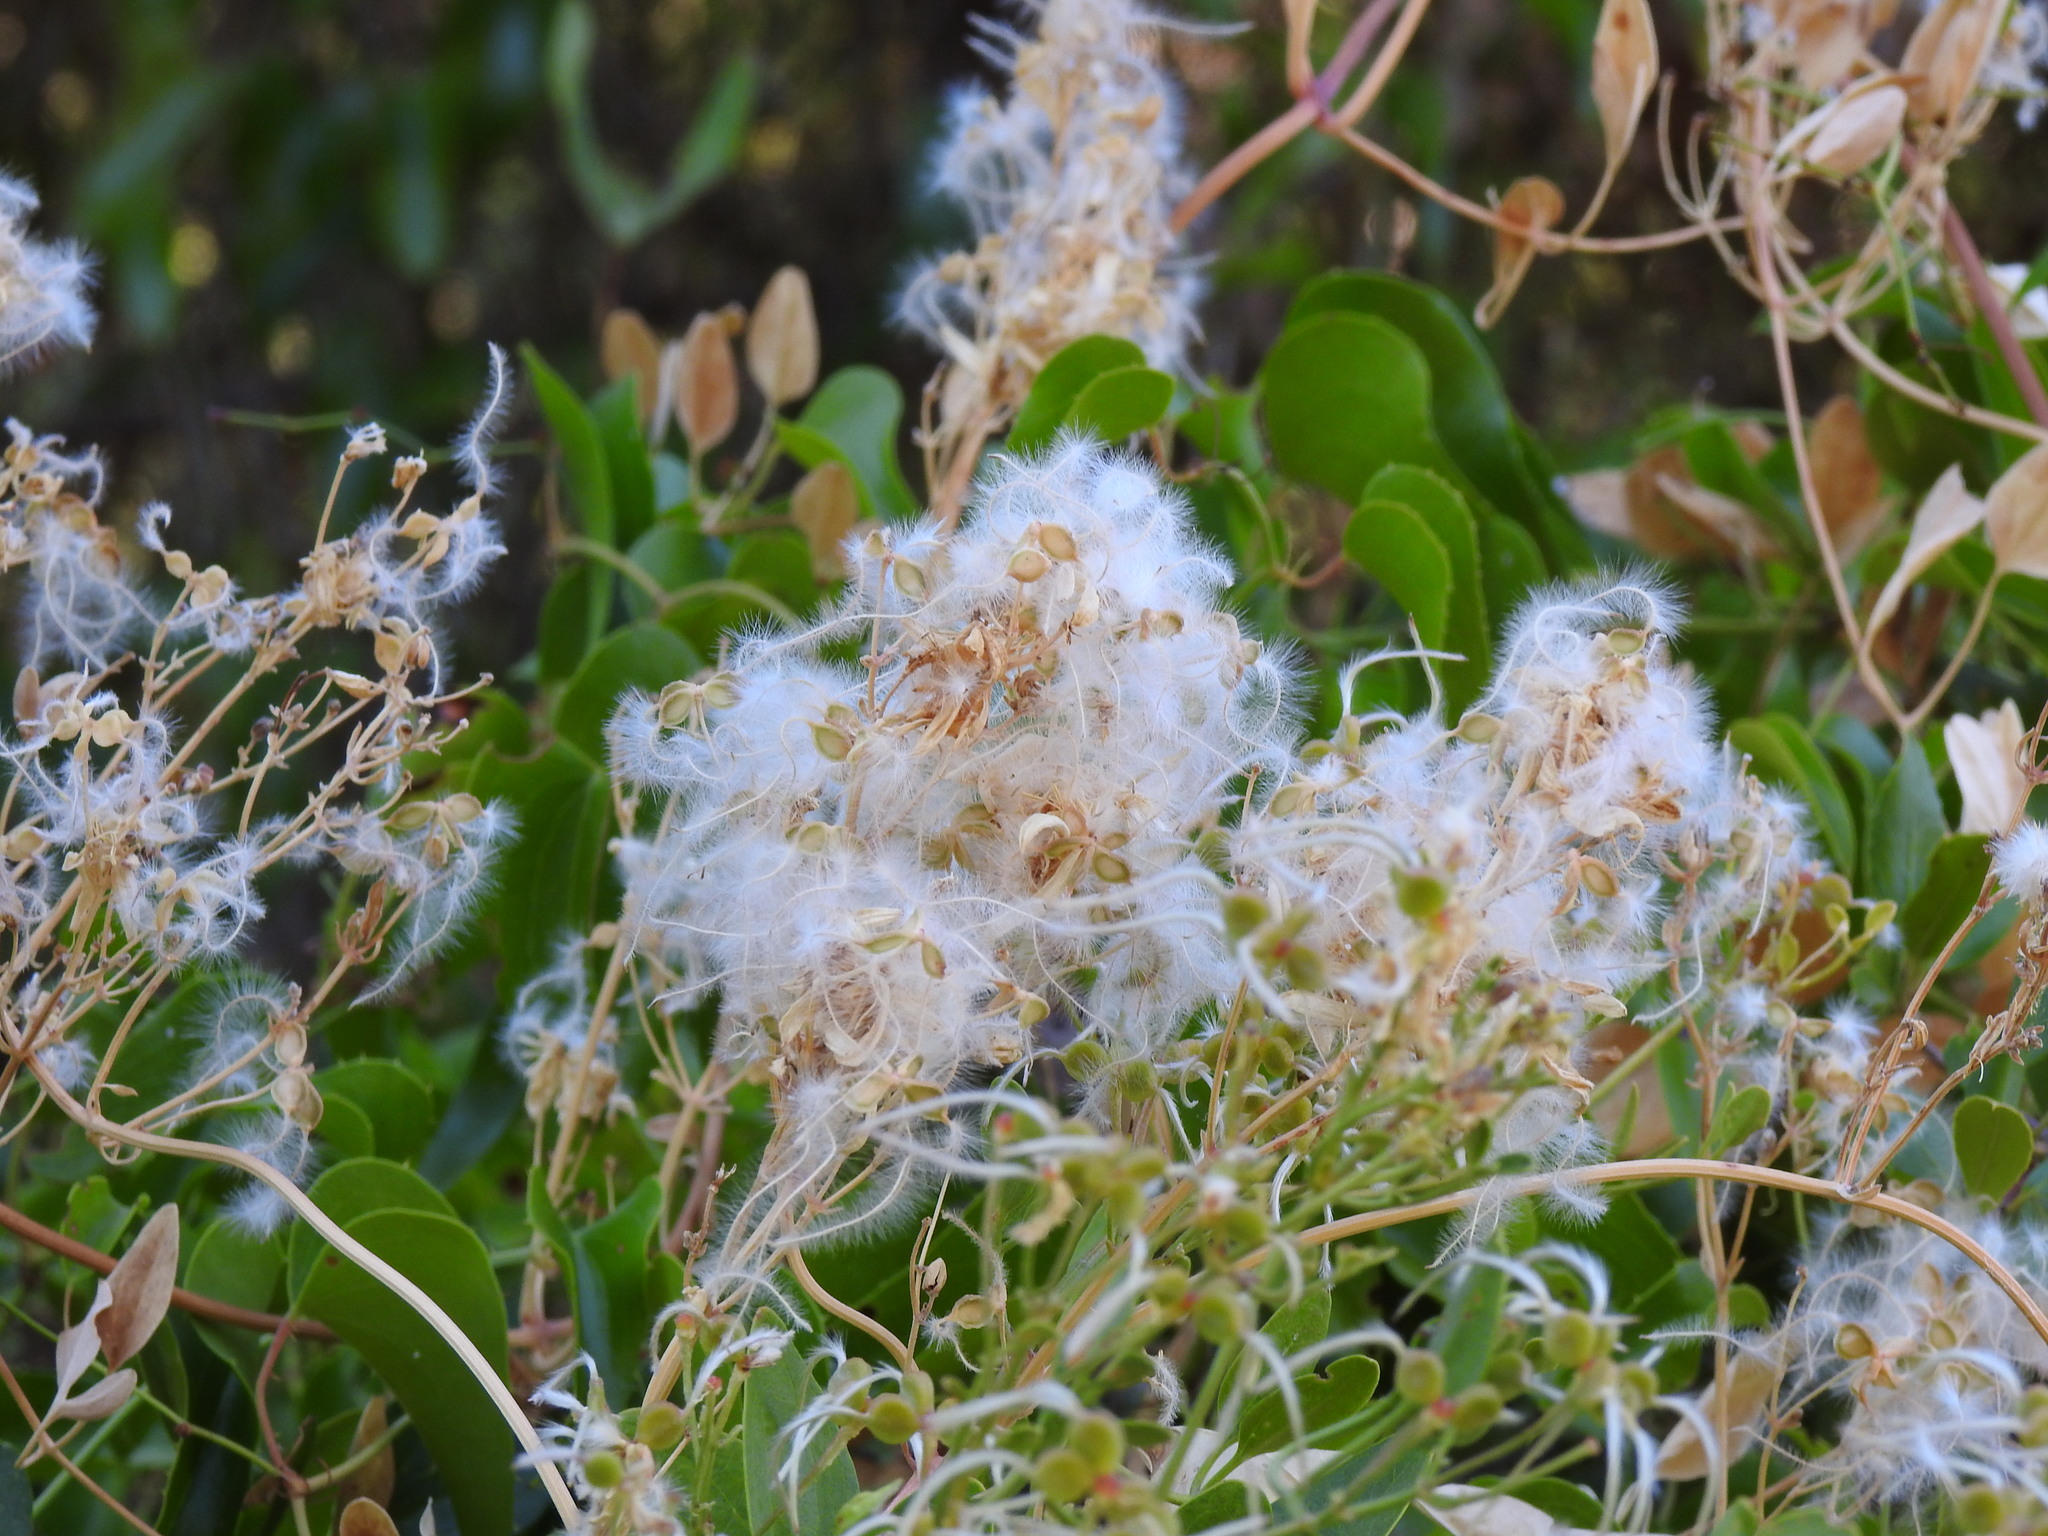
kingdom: Plantae
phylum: Tracheophyta
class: Magnoliopsida
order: Ranunculales
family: Ranunculaceae
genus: Clematis
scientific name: Clematis flammula
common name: Virgin's-bower
